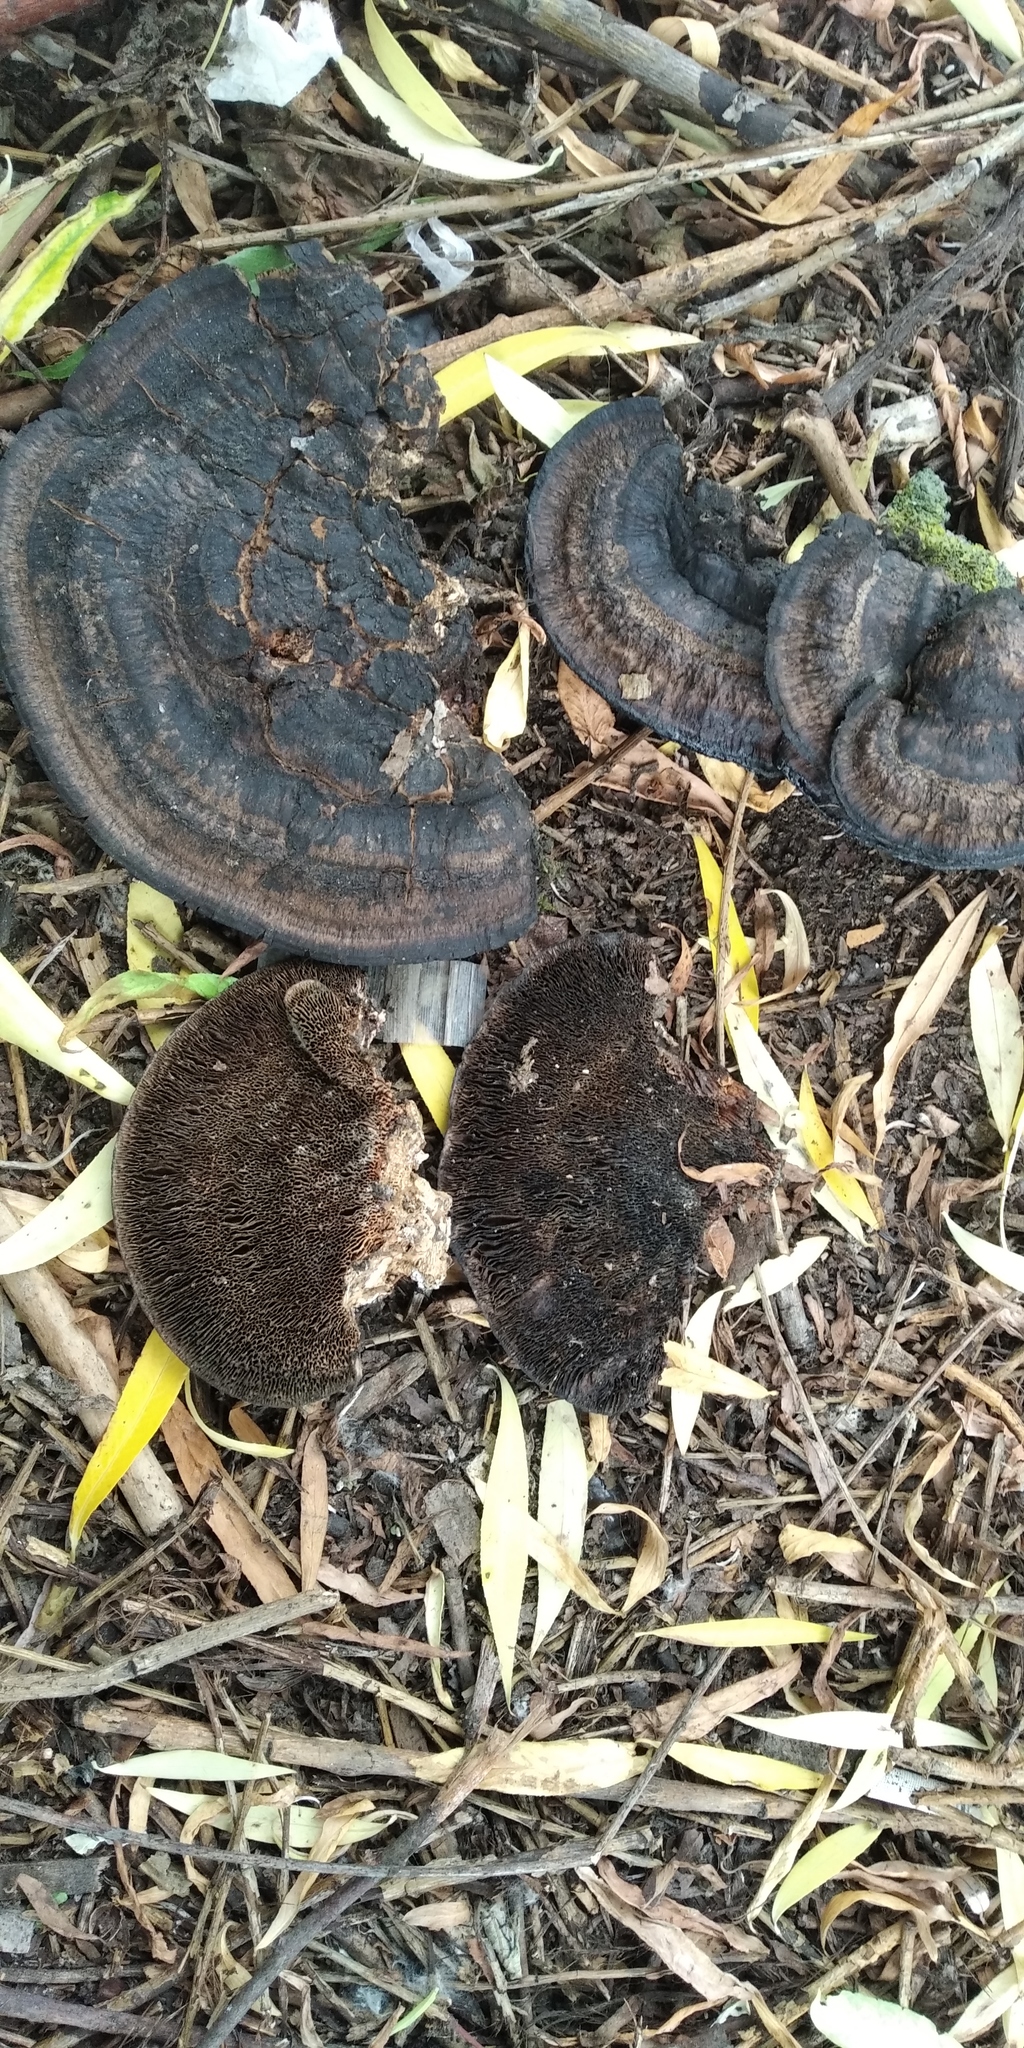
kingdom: Fungi
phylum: Basidiomycota
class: Agaricomycetes
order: Polyporales
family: Polyporaceae
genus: Daedaleopsis
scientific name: Daedaleopsis confragosa
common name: Blushing bracket
